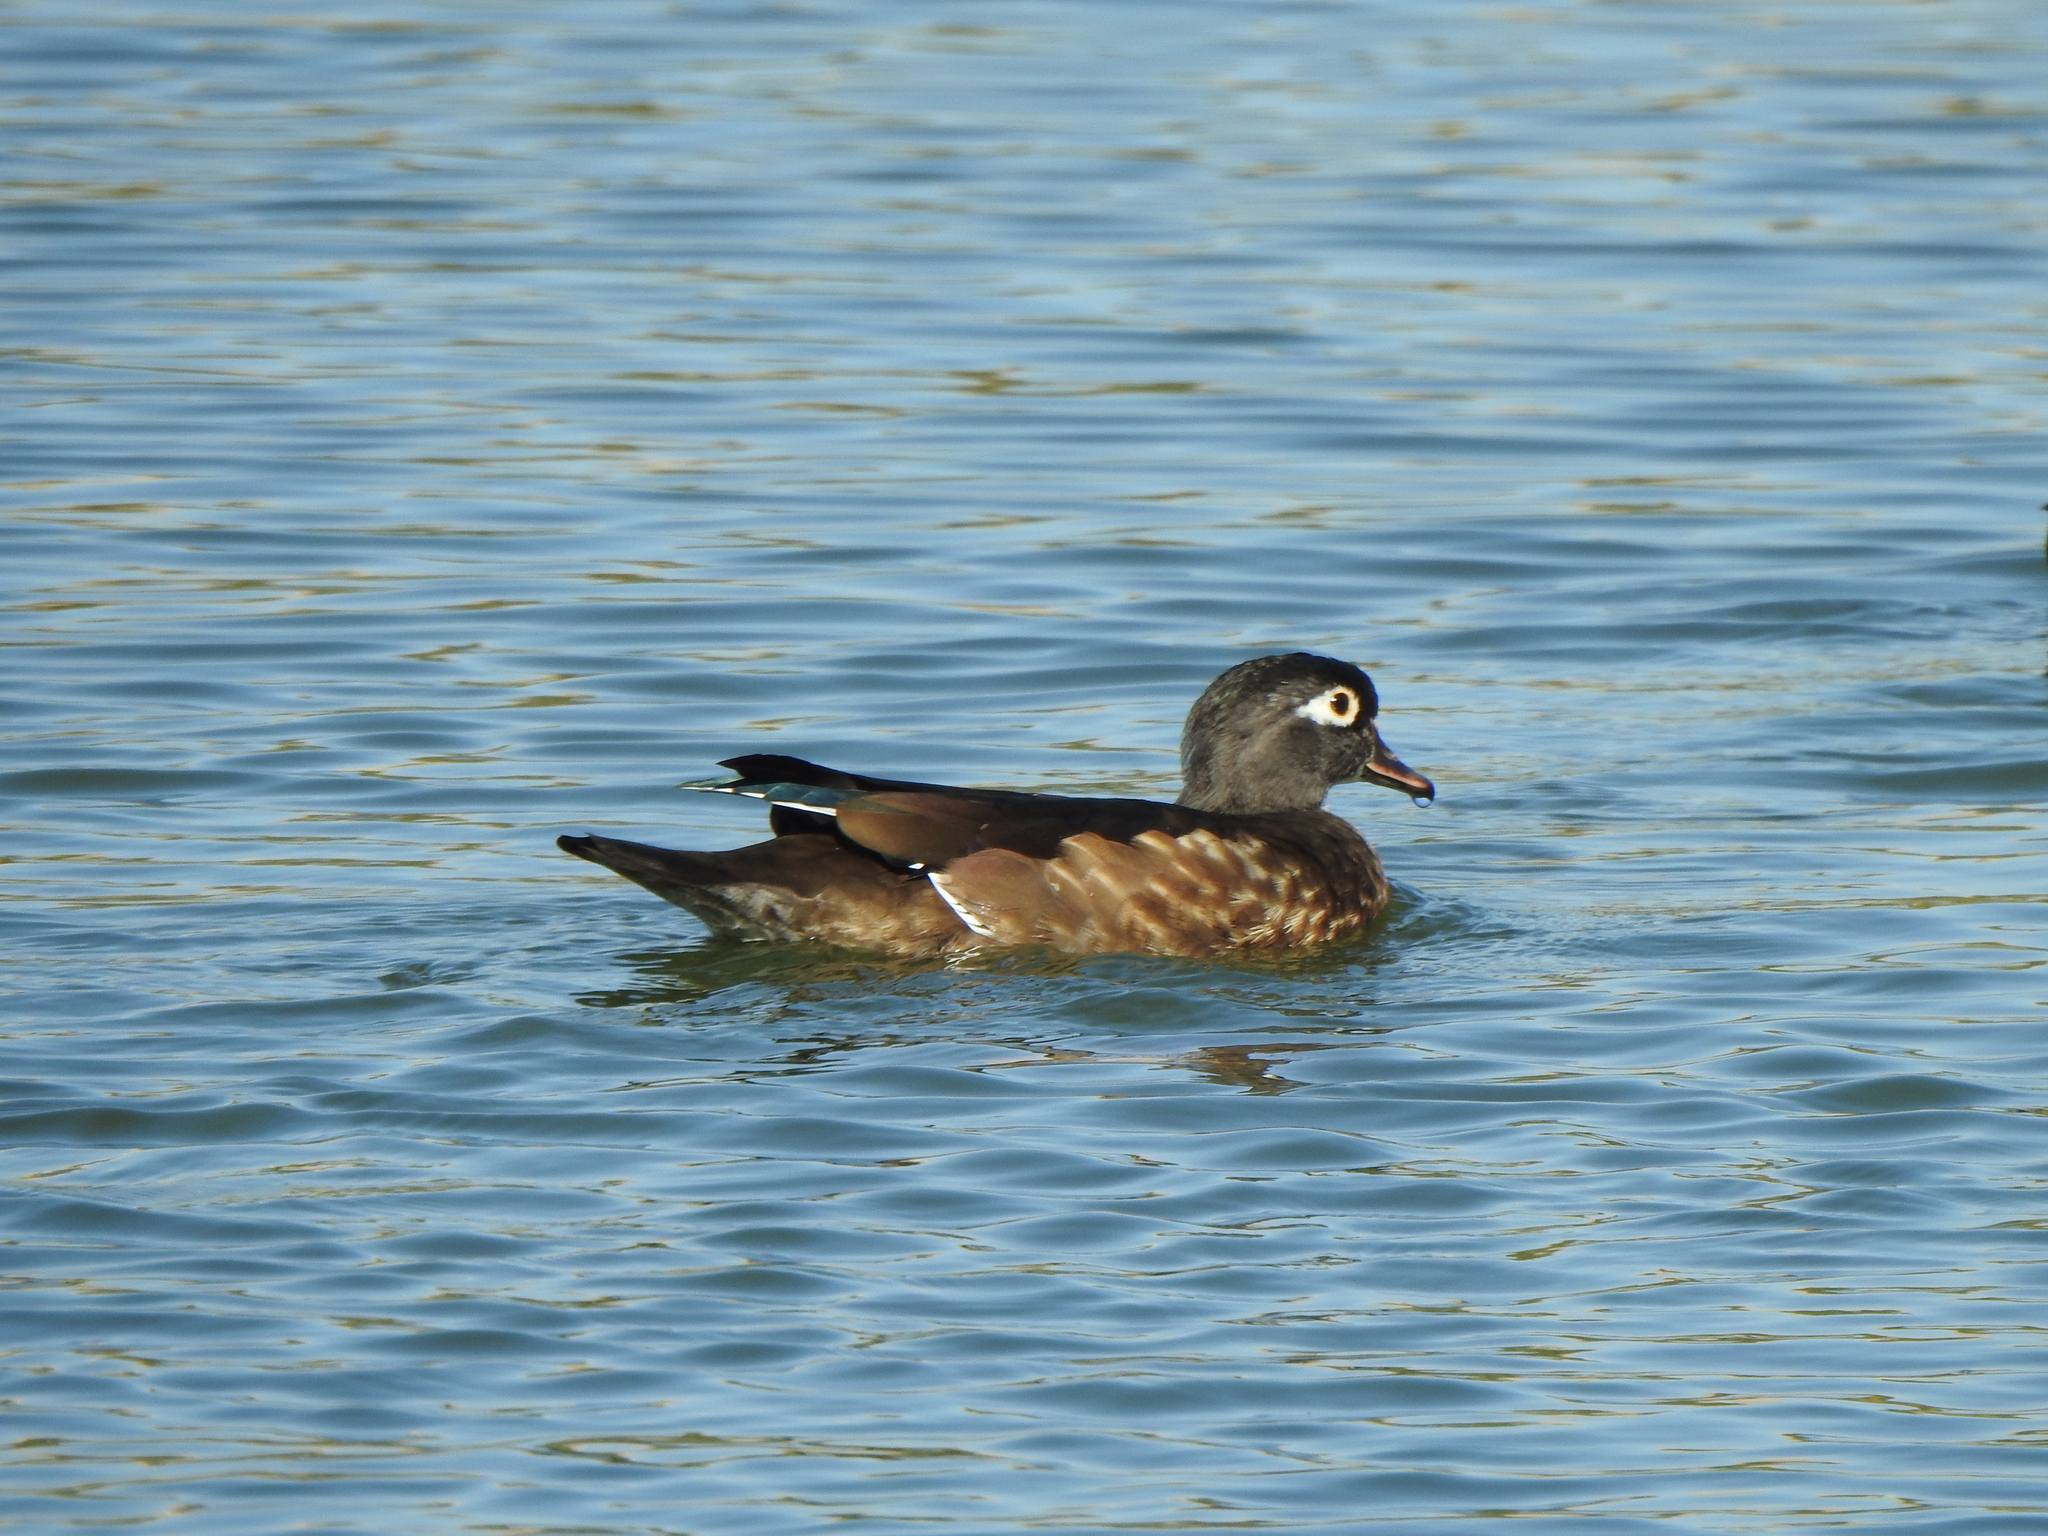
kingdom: Animalia
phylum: Chordata
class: Aves
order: Anseriformes
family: Anatidae
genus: Aix
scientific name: Aix sponsa
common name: Wood duck
